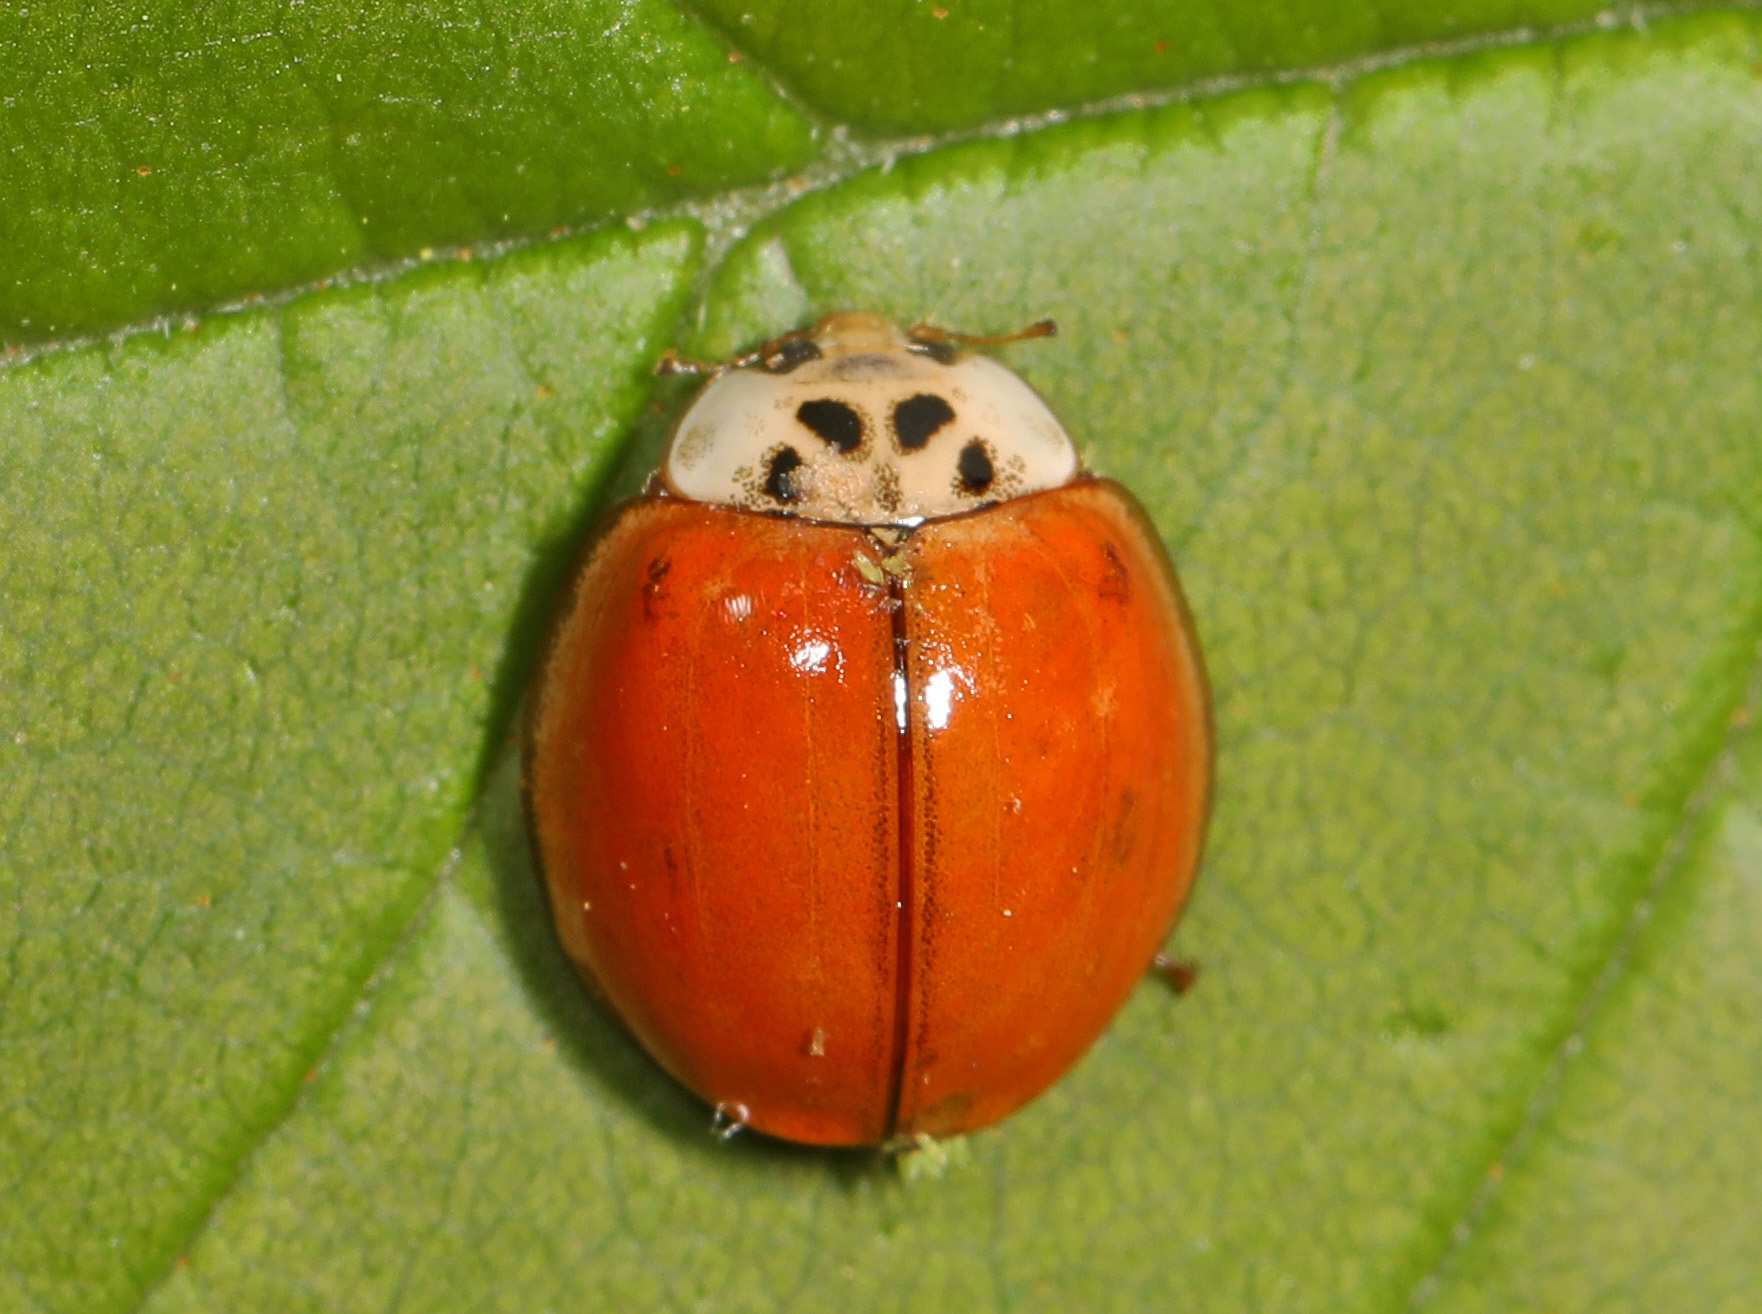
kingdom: Animalia
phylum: Arthropoda
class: Insecta
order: Coleoptera
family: Coccinellidae
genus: Harmonia
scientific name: Harmonia axyridis
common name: Harlequin ladybird
